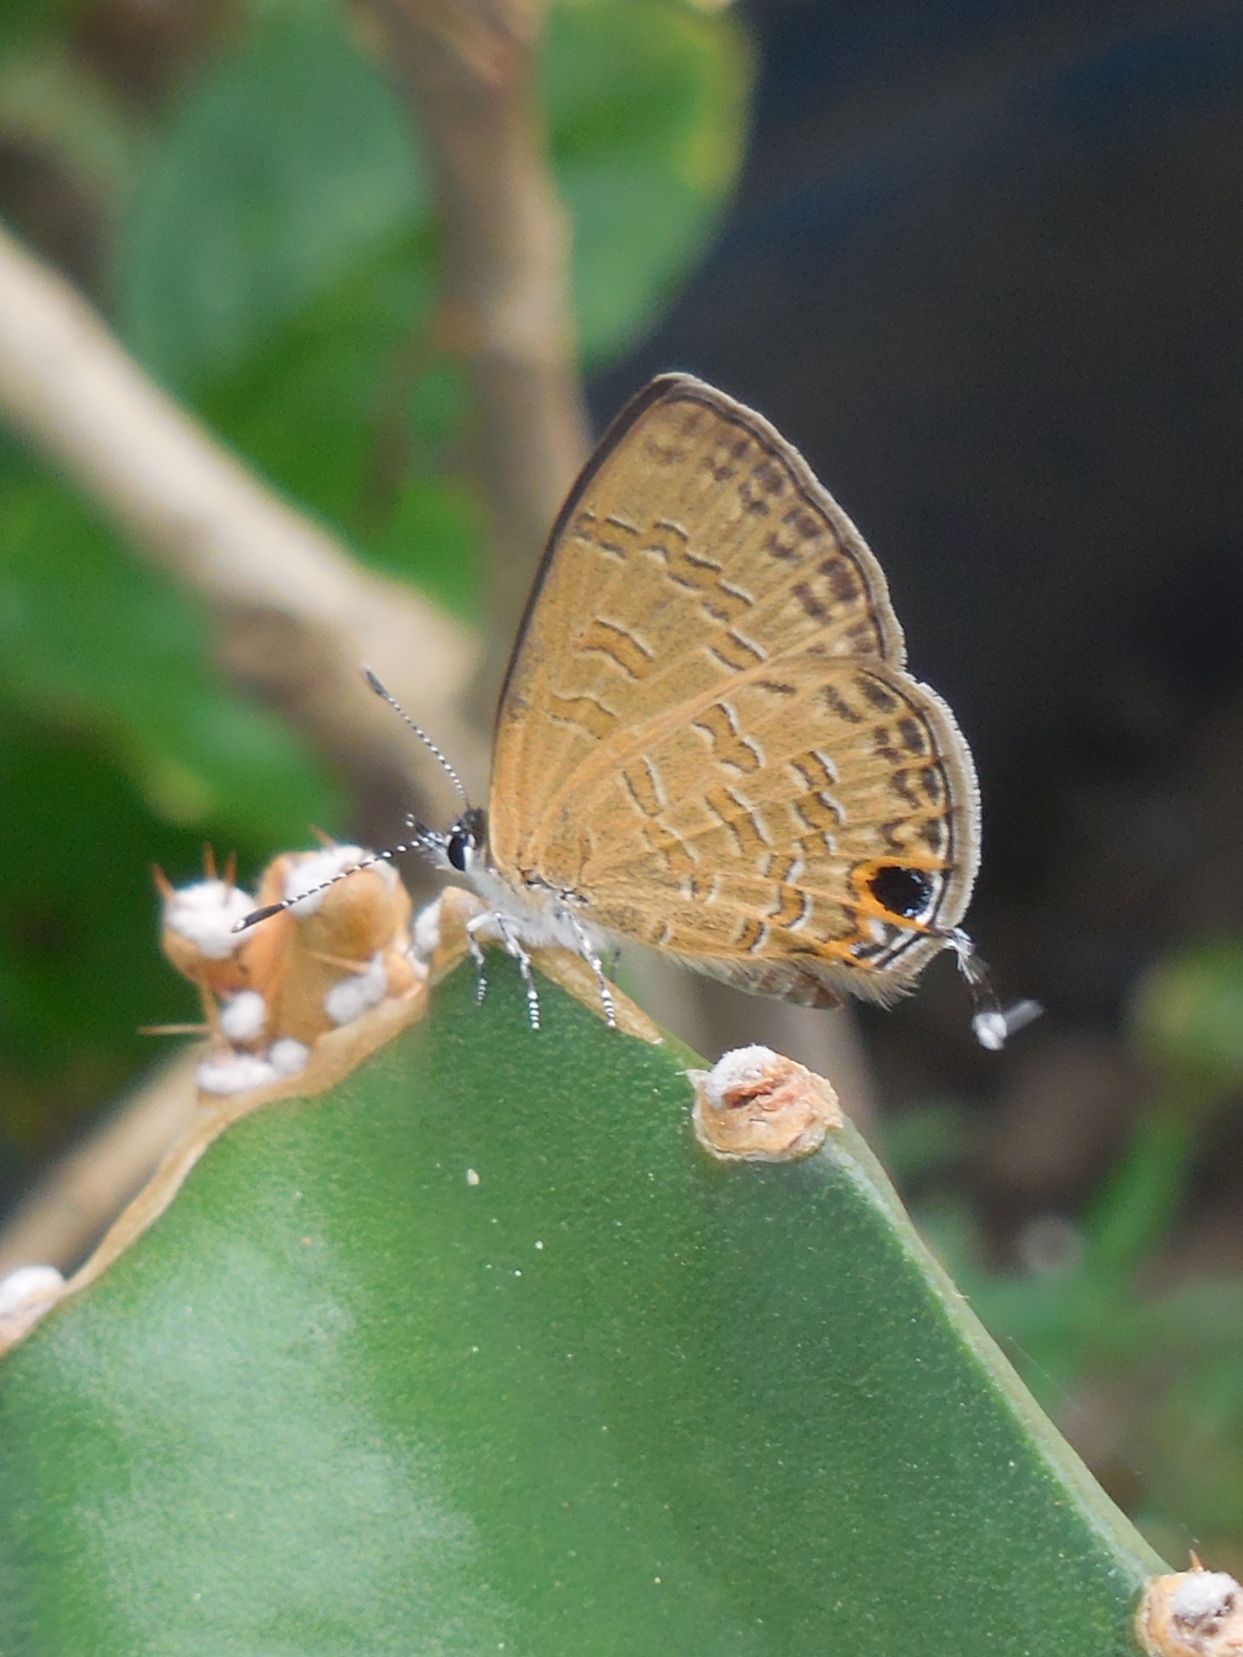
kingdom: Animalia
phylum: Arthropoda
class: Insecta
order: Lepidoptera
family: Lycaenidae
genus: Prosotas
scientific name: Prosotas nora
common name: Common line blue
